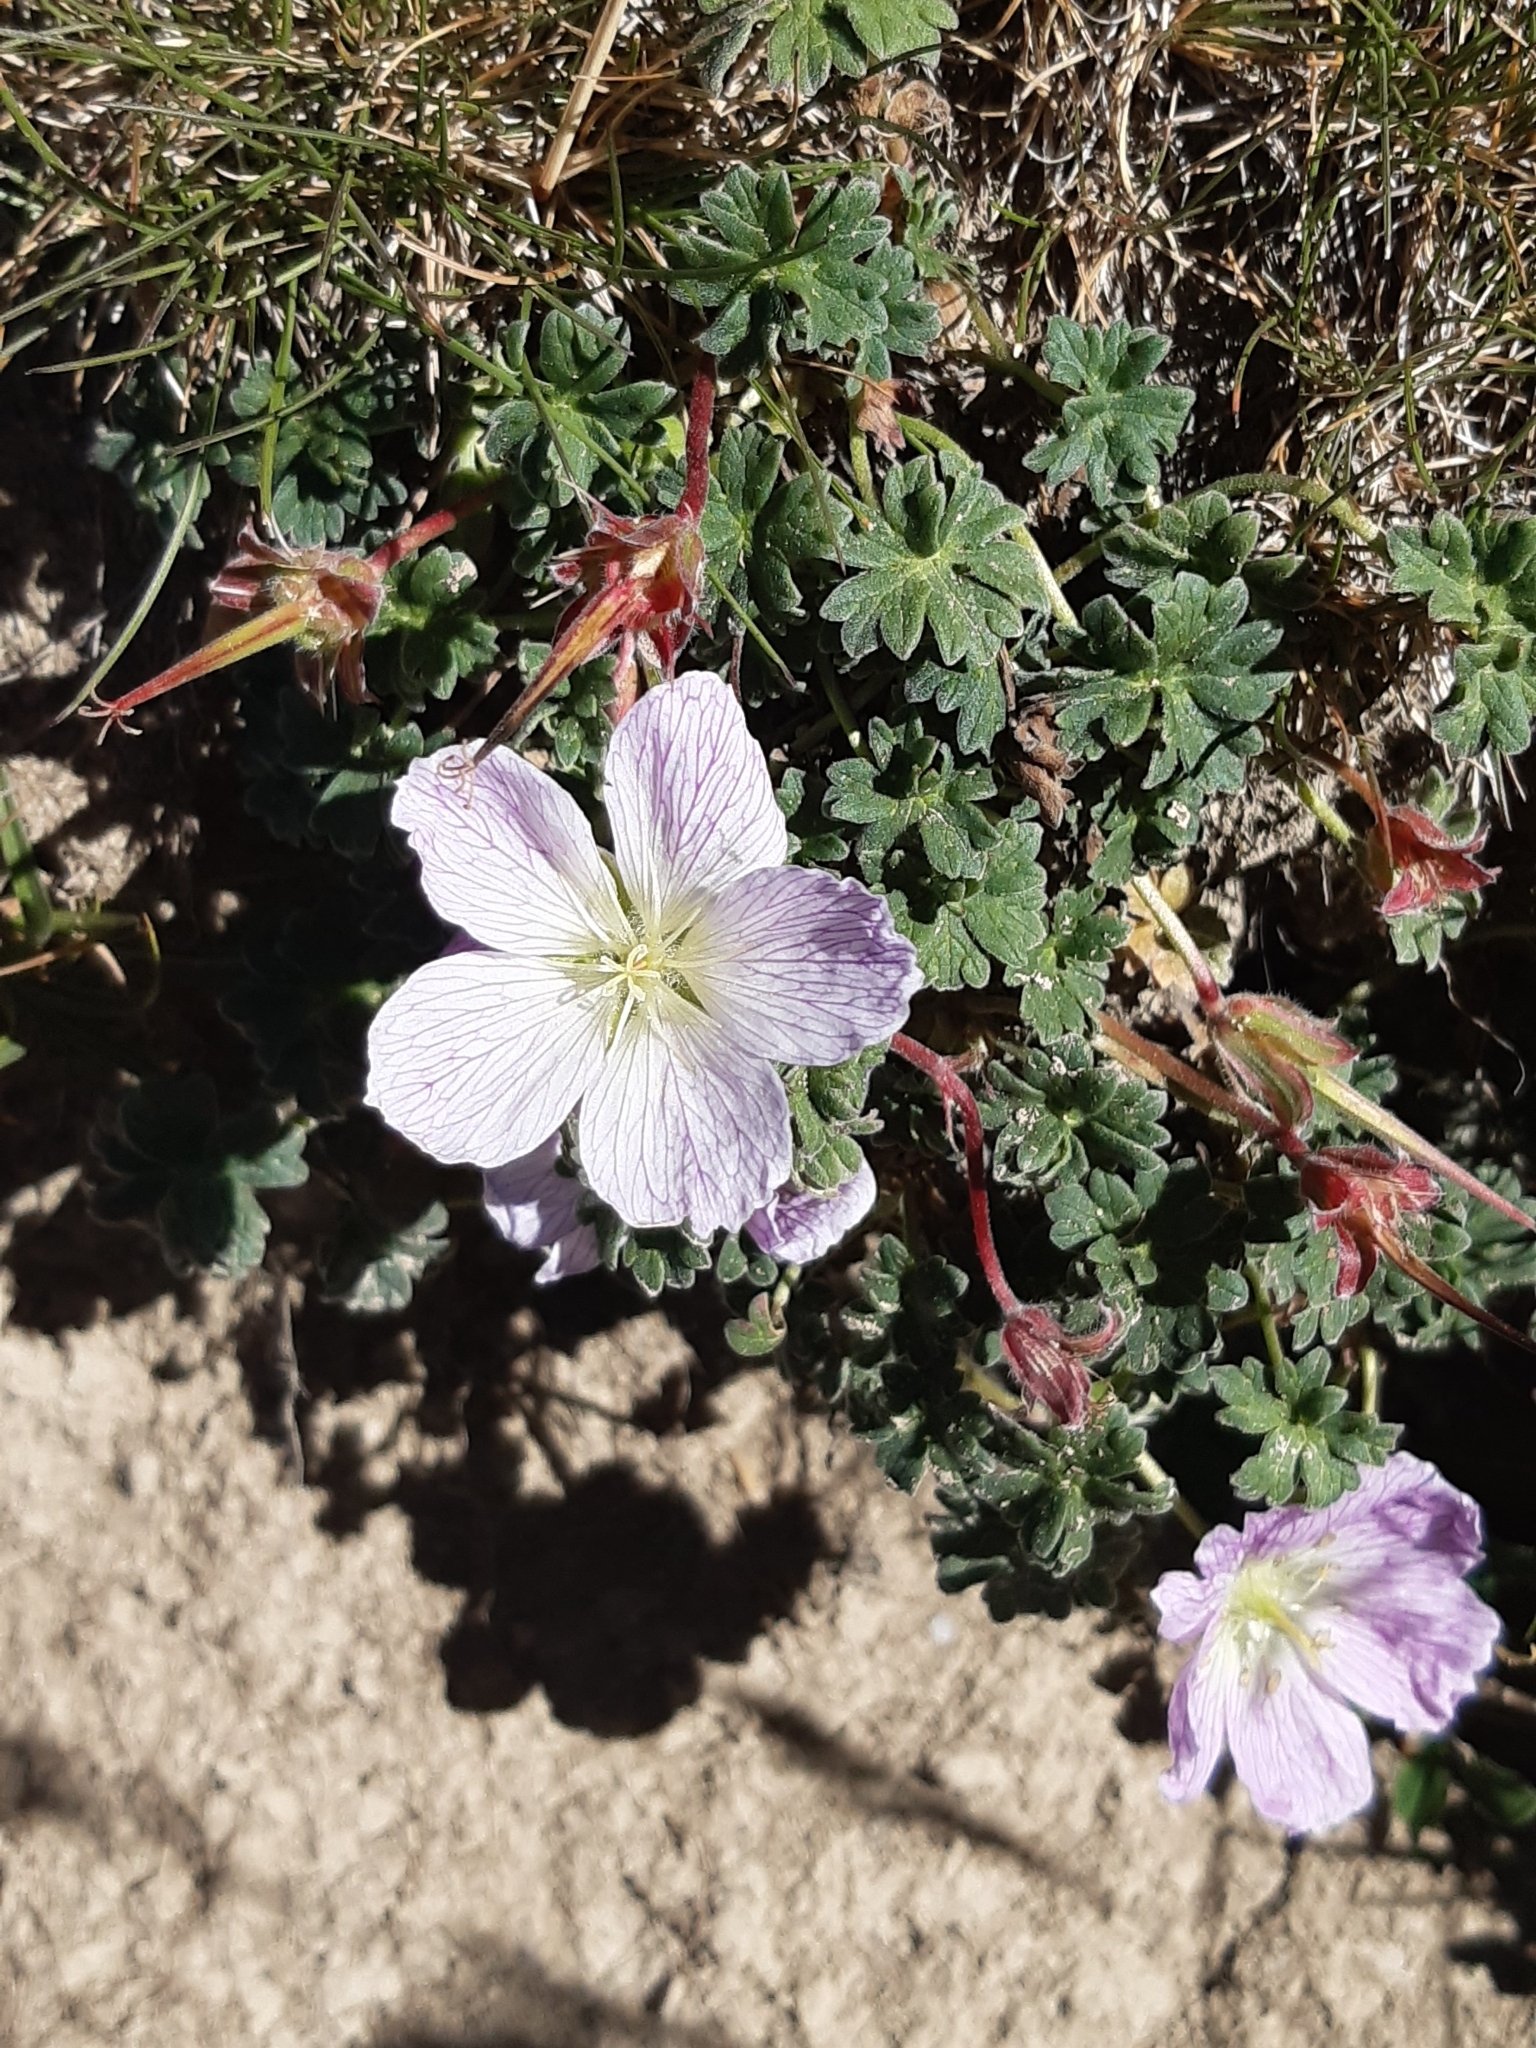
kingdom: Plantae
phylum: Tracheophyta
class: Magnoliopsida
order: Geraniales
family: Geraniaceae
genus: Geranium
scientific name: Geranium cinereum
